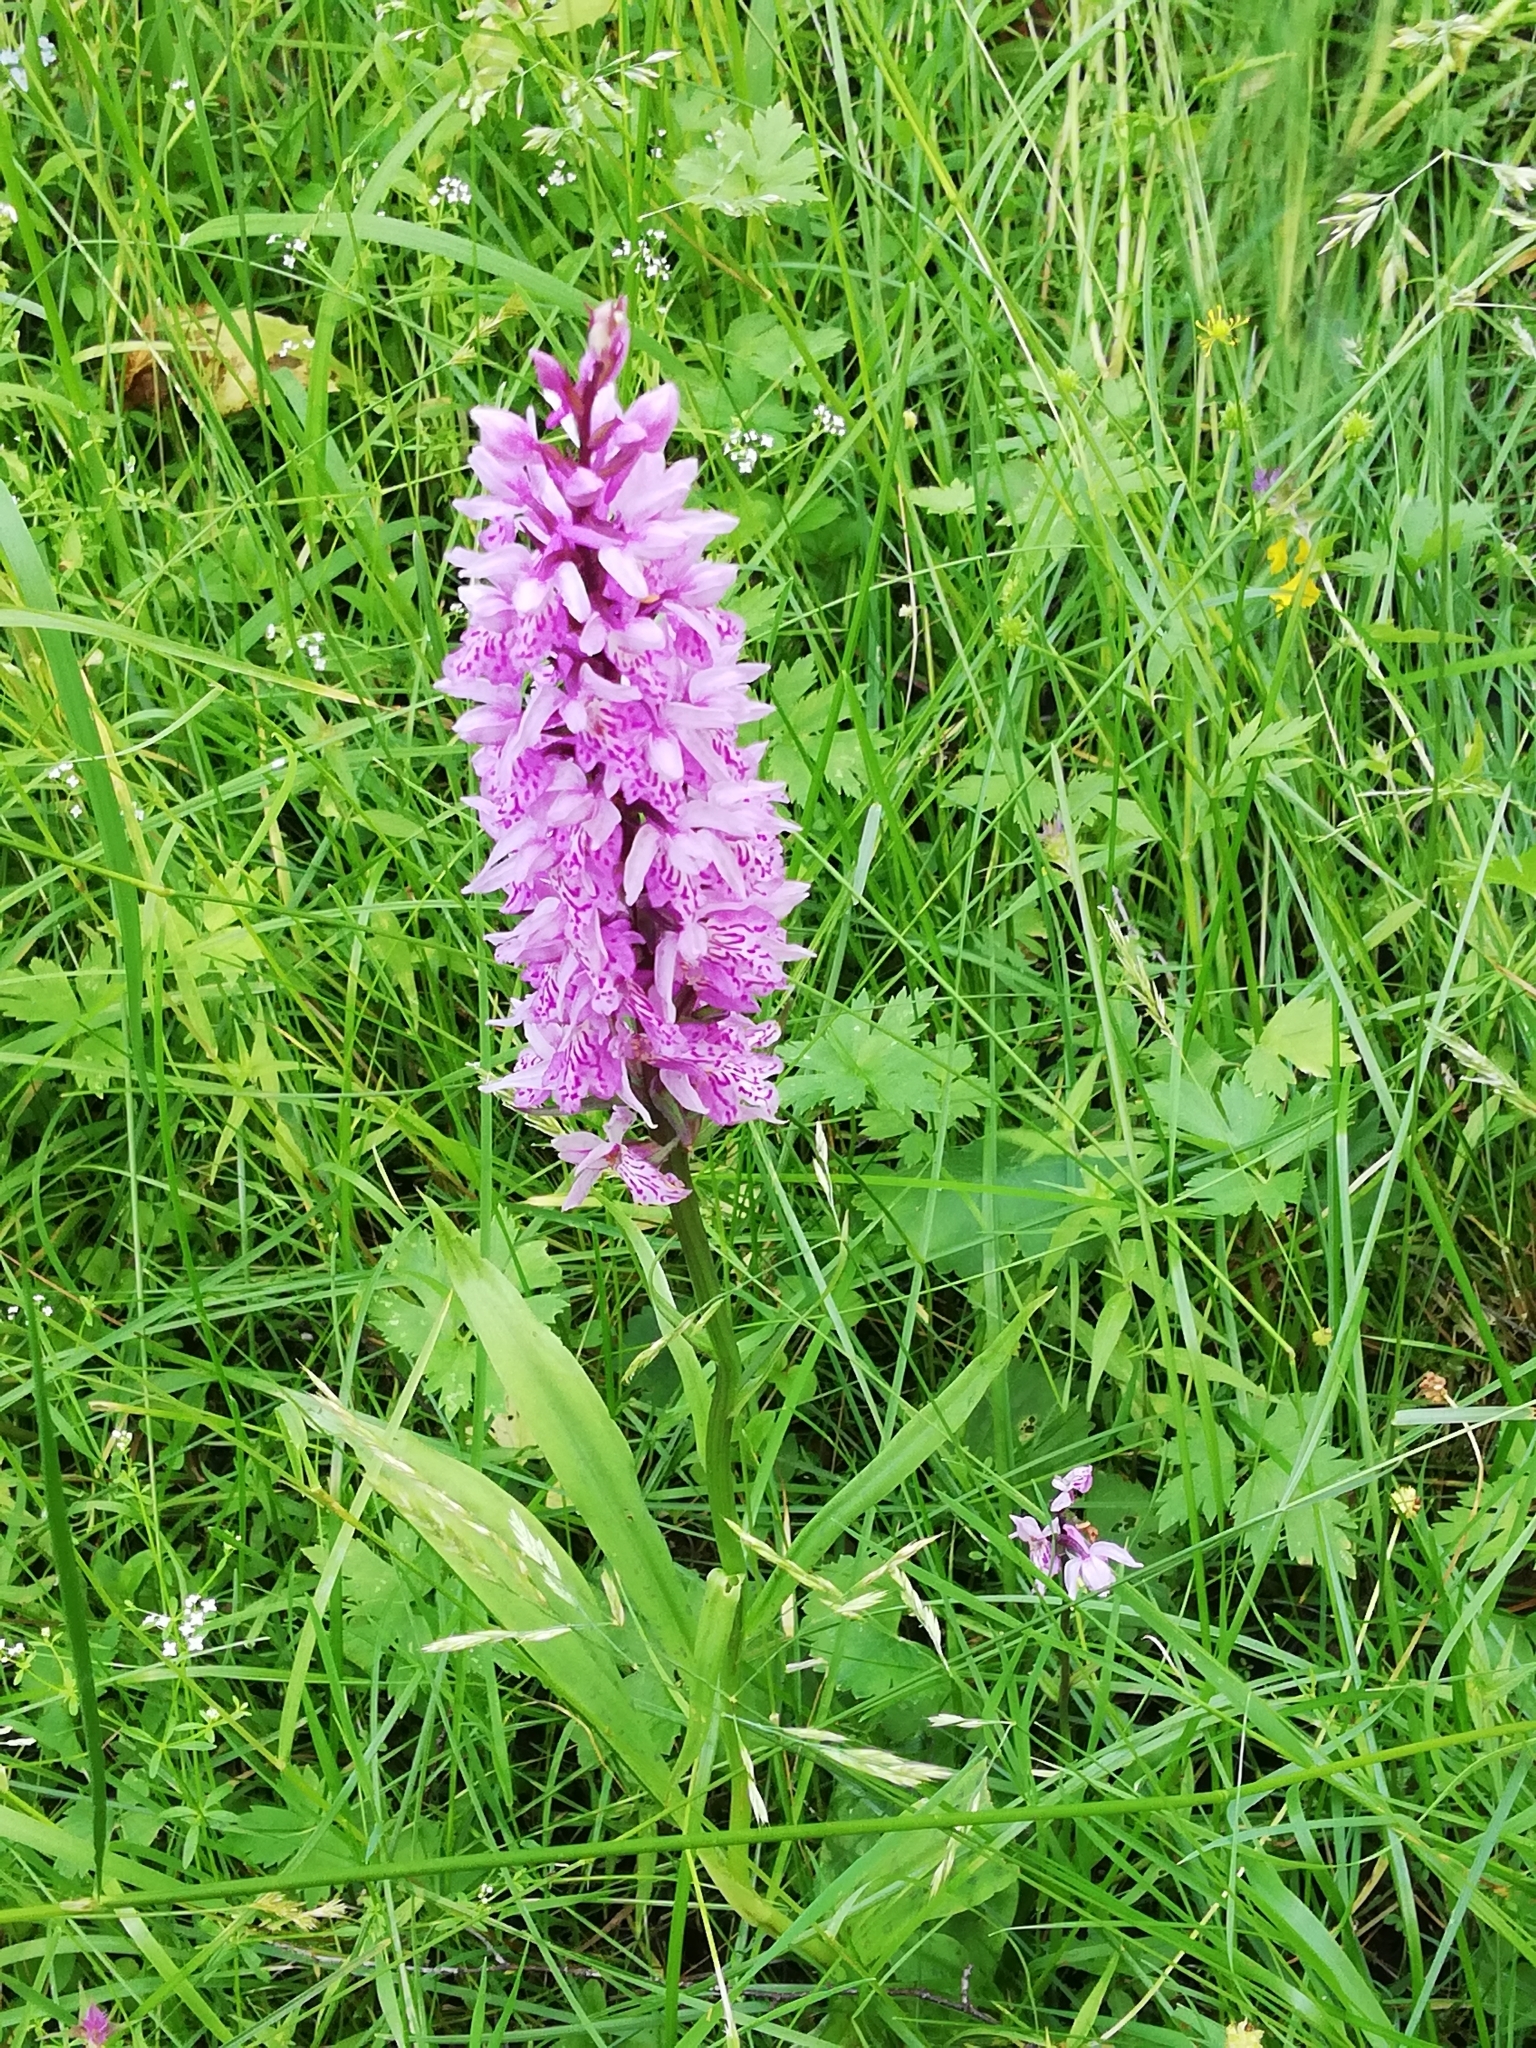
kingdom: Plantae
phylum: Tracheophyta
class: Liliopsida
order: Asparagales
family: Orchidaceae
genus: Dactylorhiza
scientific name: Dactylorhiza maculata
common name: Heath spotted-orchid
